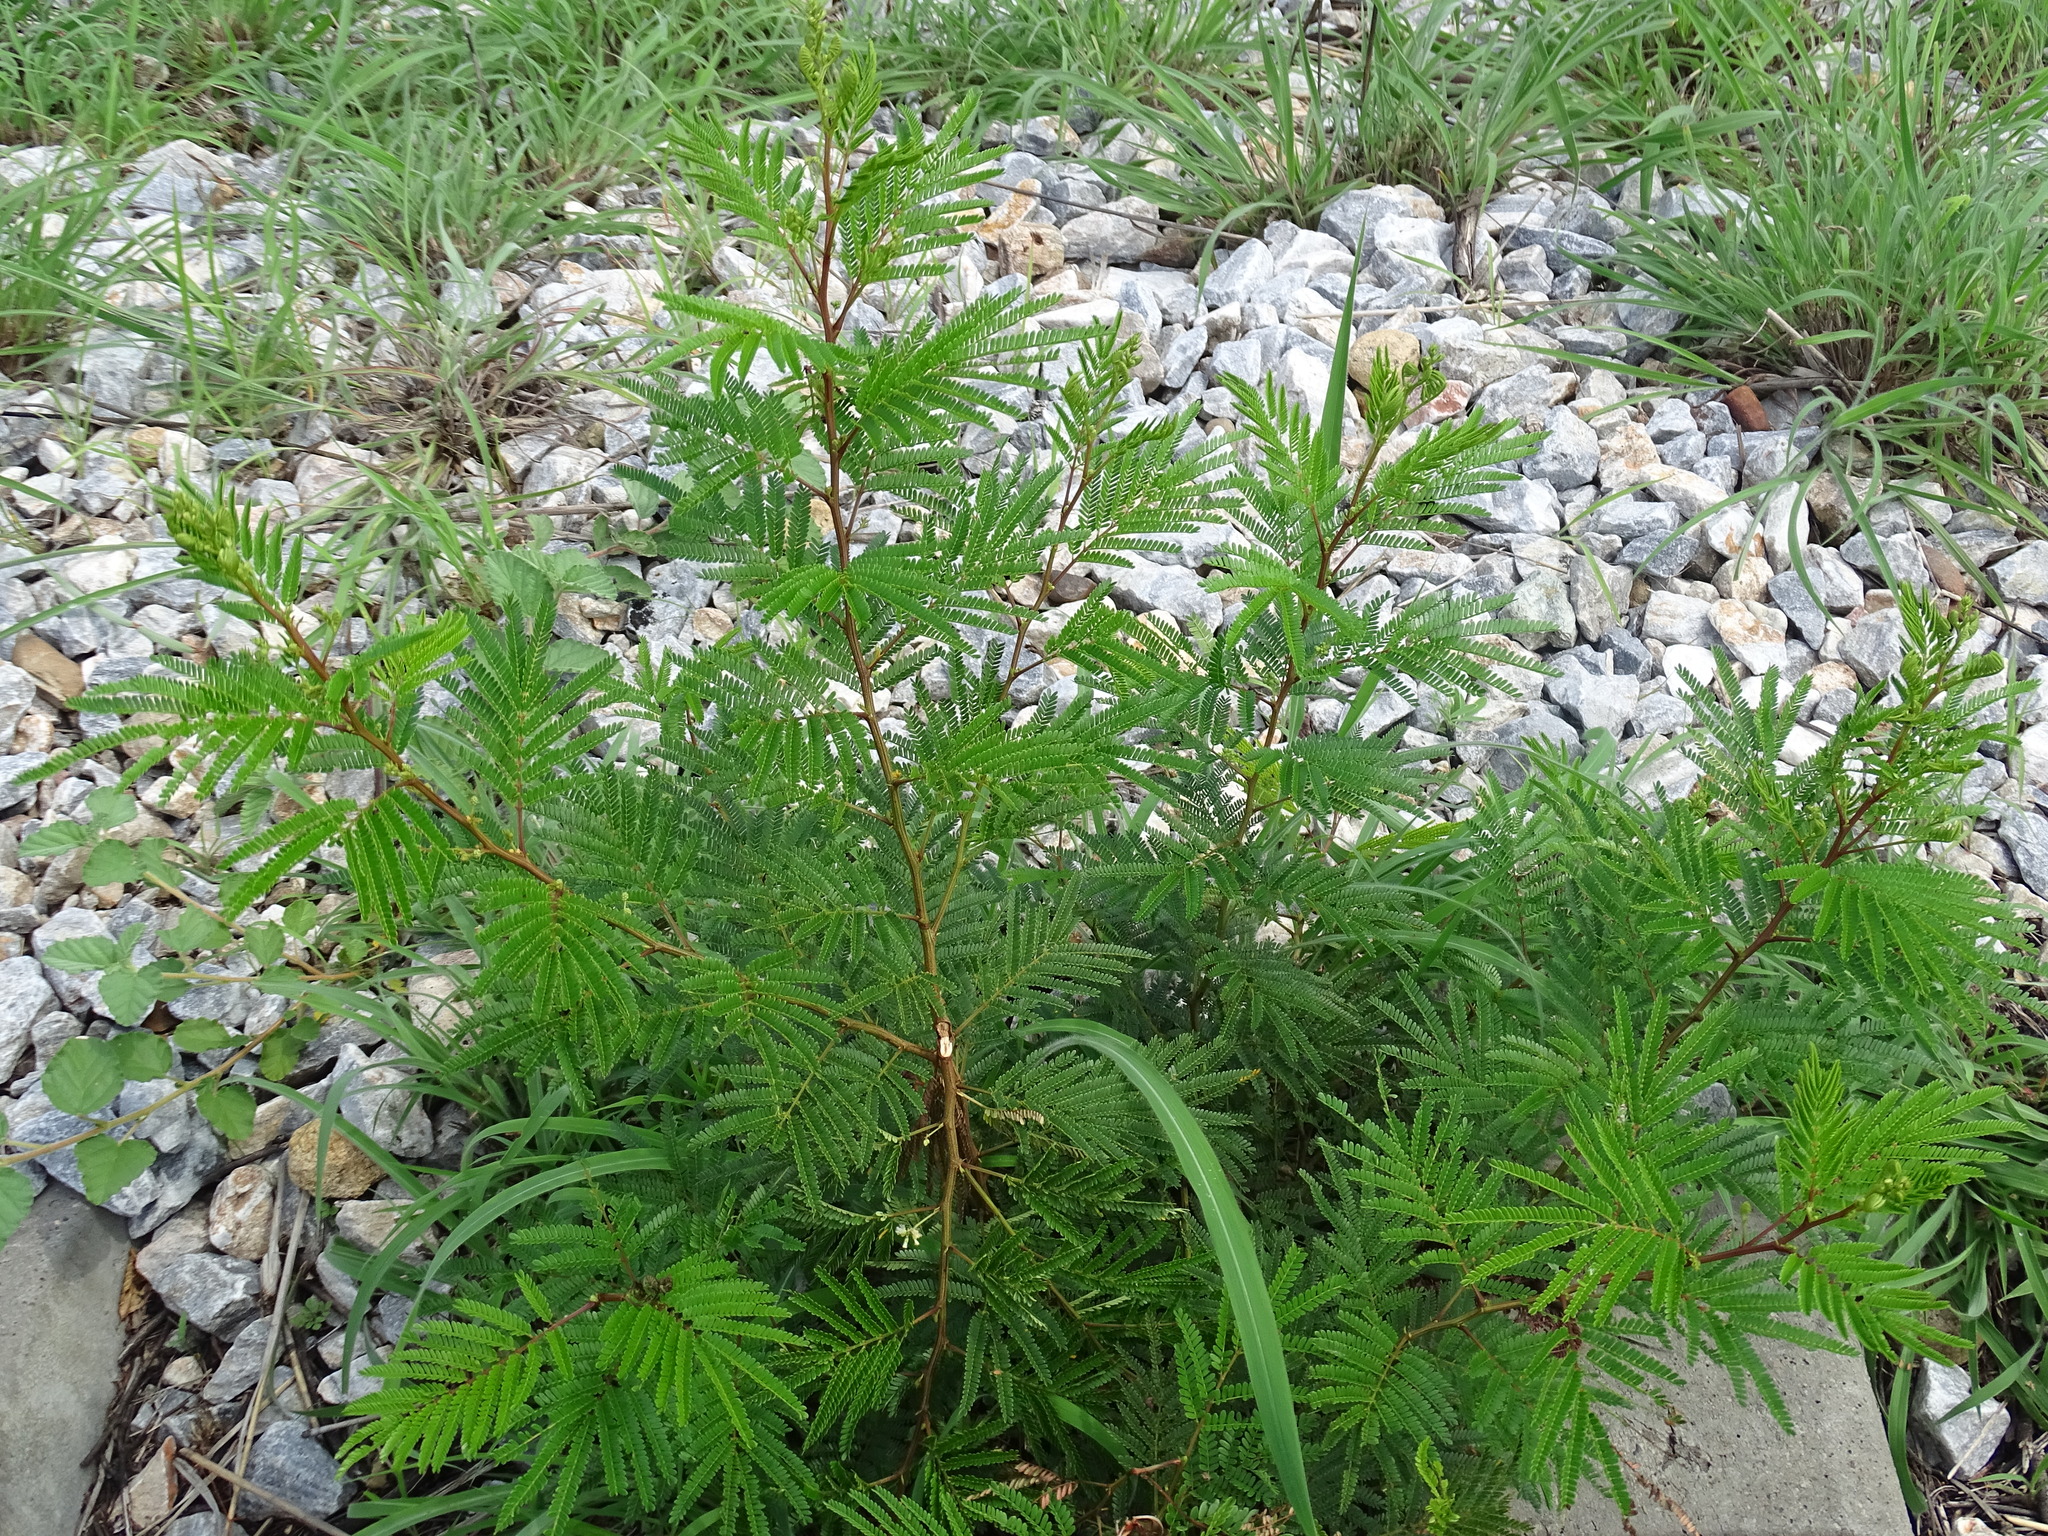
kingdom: Plantae
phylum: Tracheophyta
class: Magnoliopsida
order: Fabales
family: Fabaceae
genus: Acaciella
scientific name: Acaciella villosa
